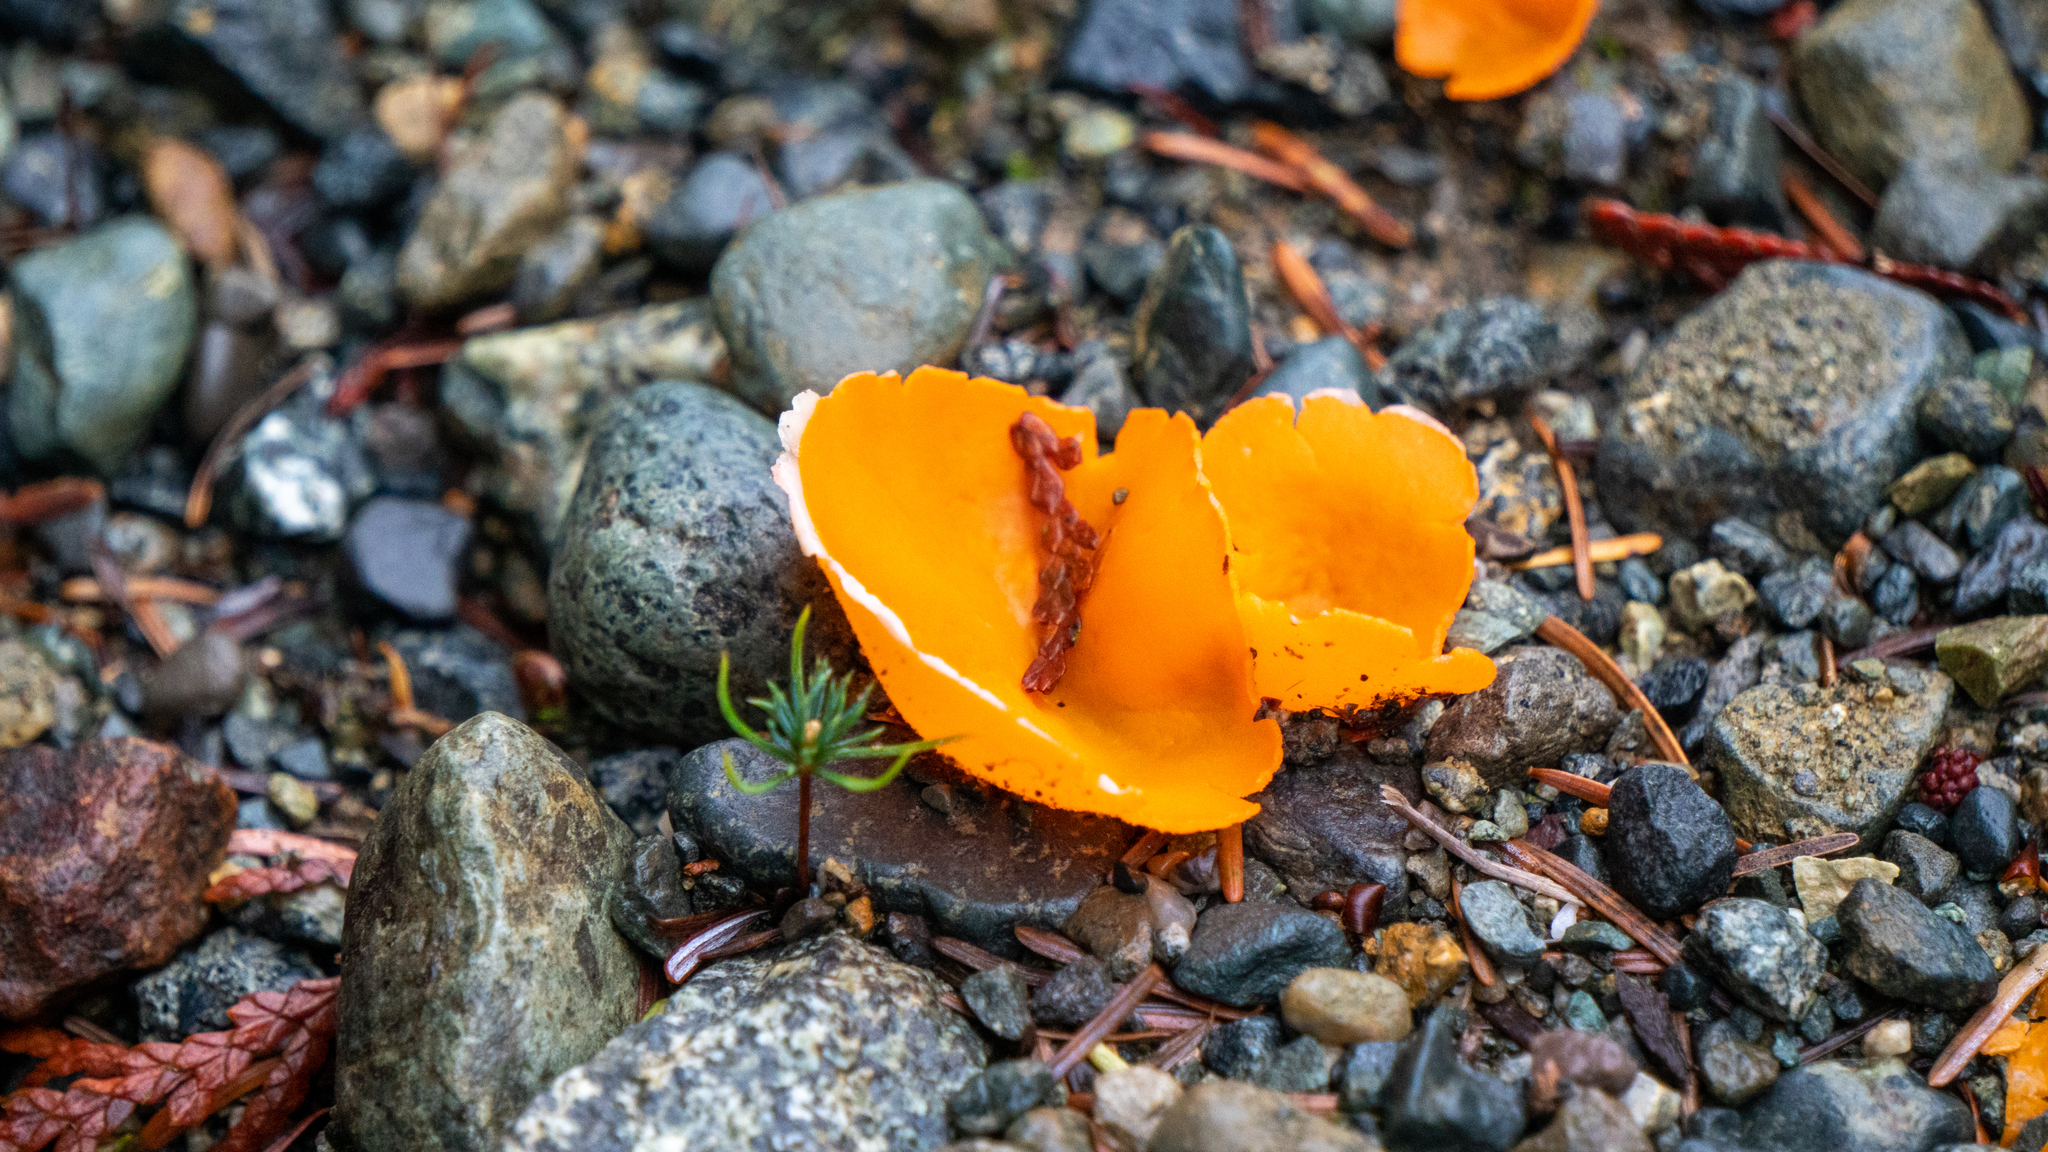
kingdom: Fungi
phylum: Ascomycota
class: Pezizomycetes
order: Pezizales
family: Pyronemataceae
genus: Aleuria
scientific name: Aleuria aurantia
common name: Orange peel fungus
